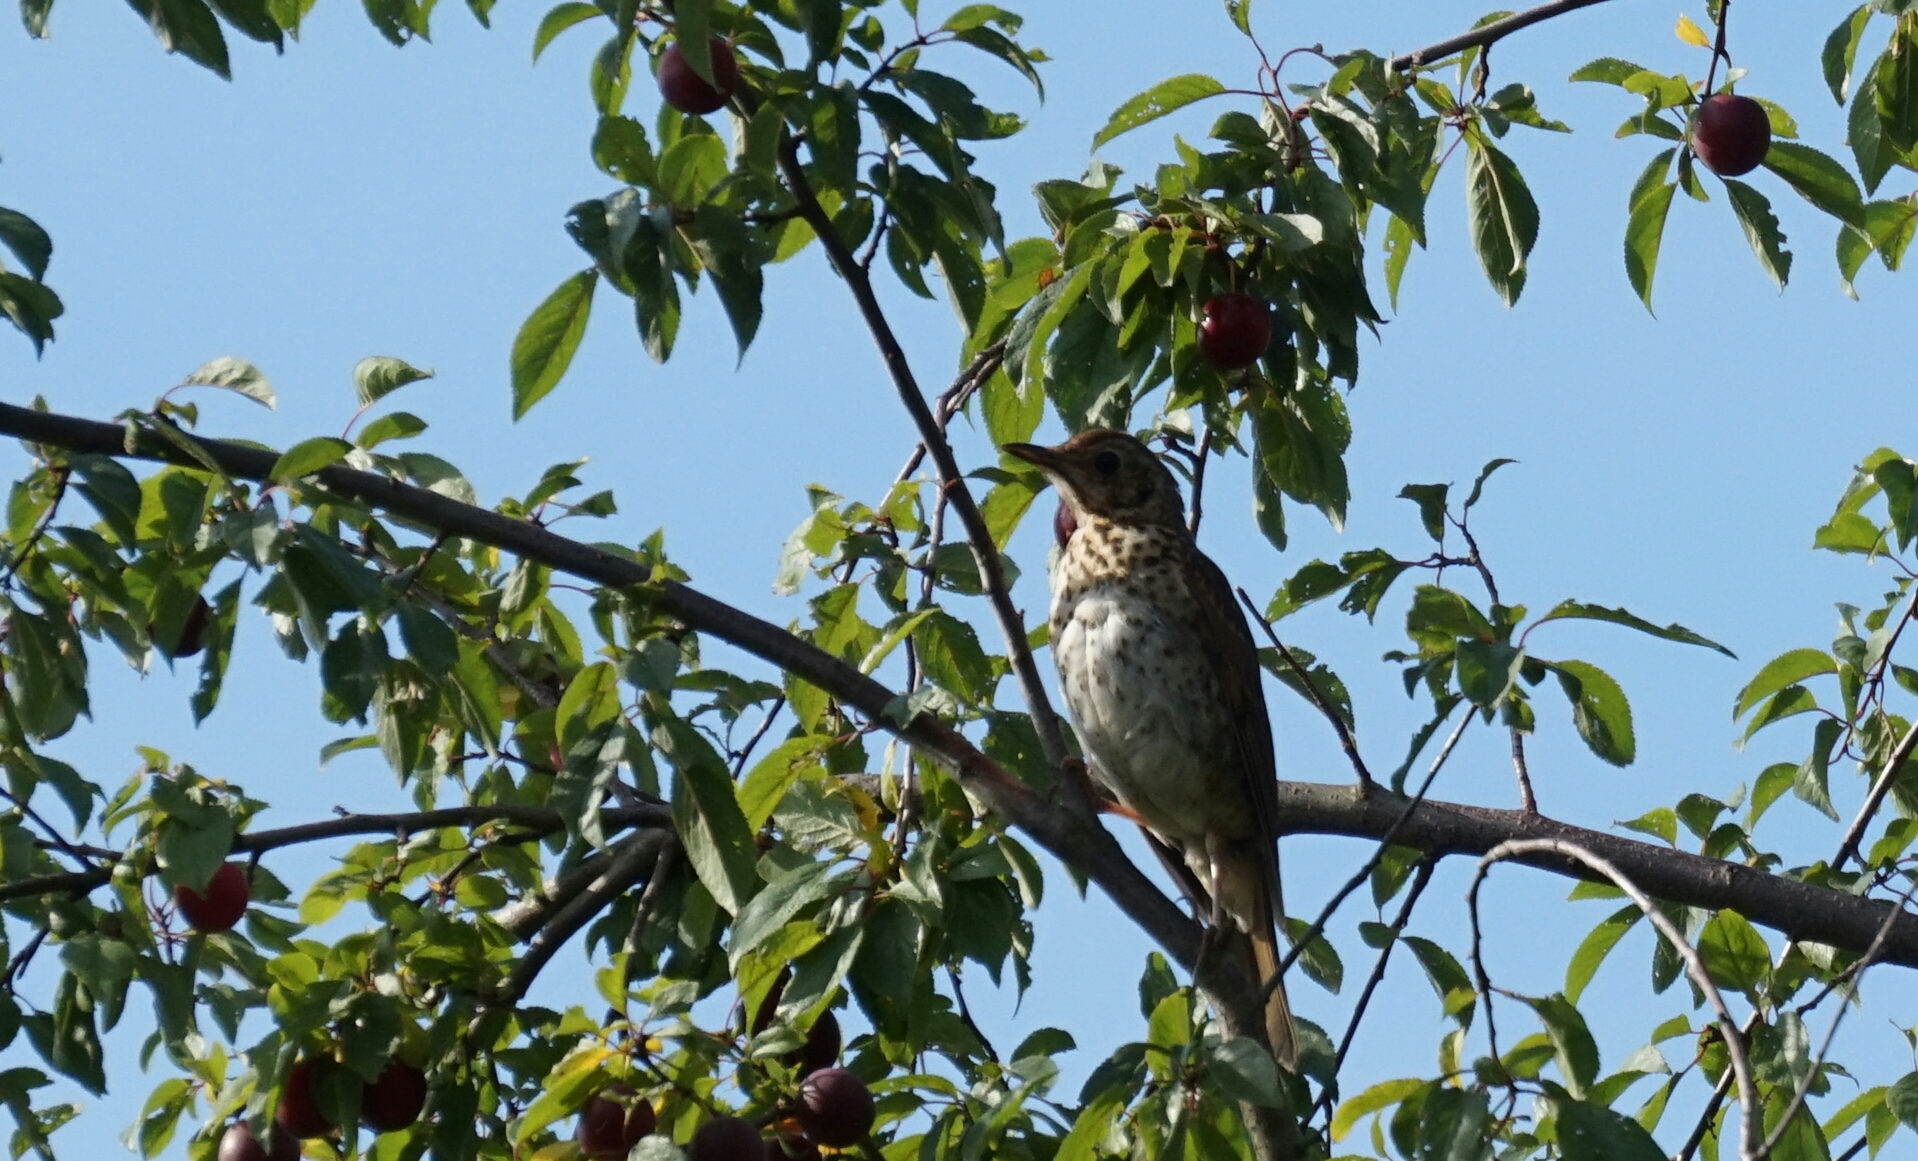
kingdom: Animalia
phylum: Chordata
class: Aves
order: Passeriformes
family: Turdidae
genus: Turdus
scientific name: Turdus viscivorus
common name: Mistle thrush
